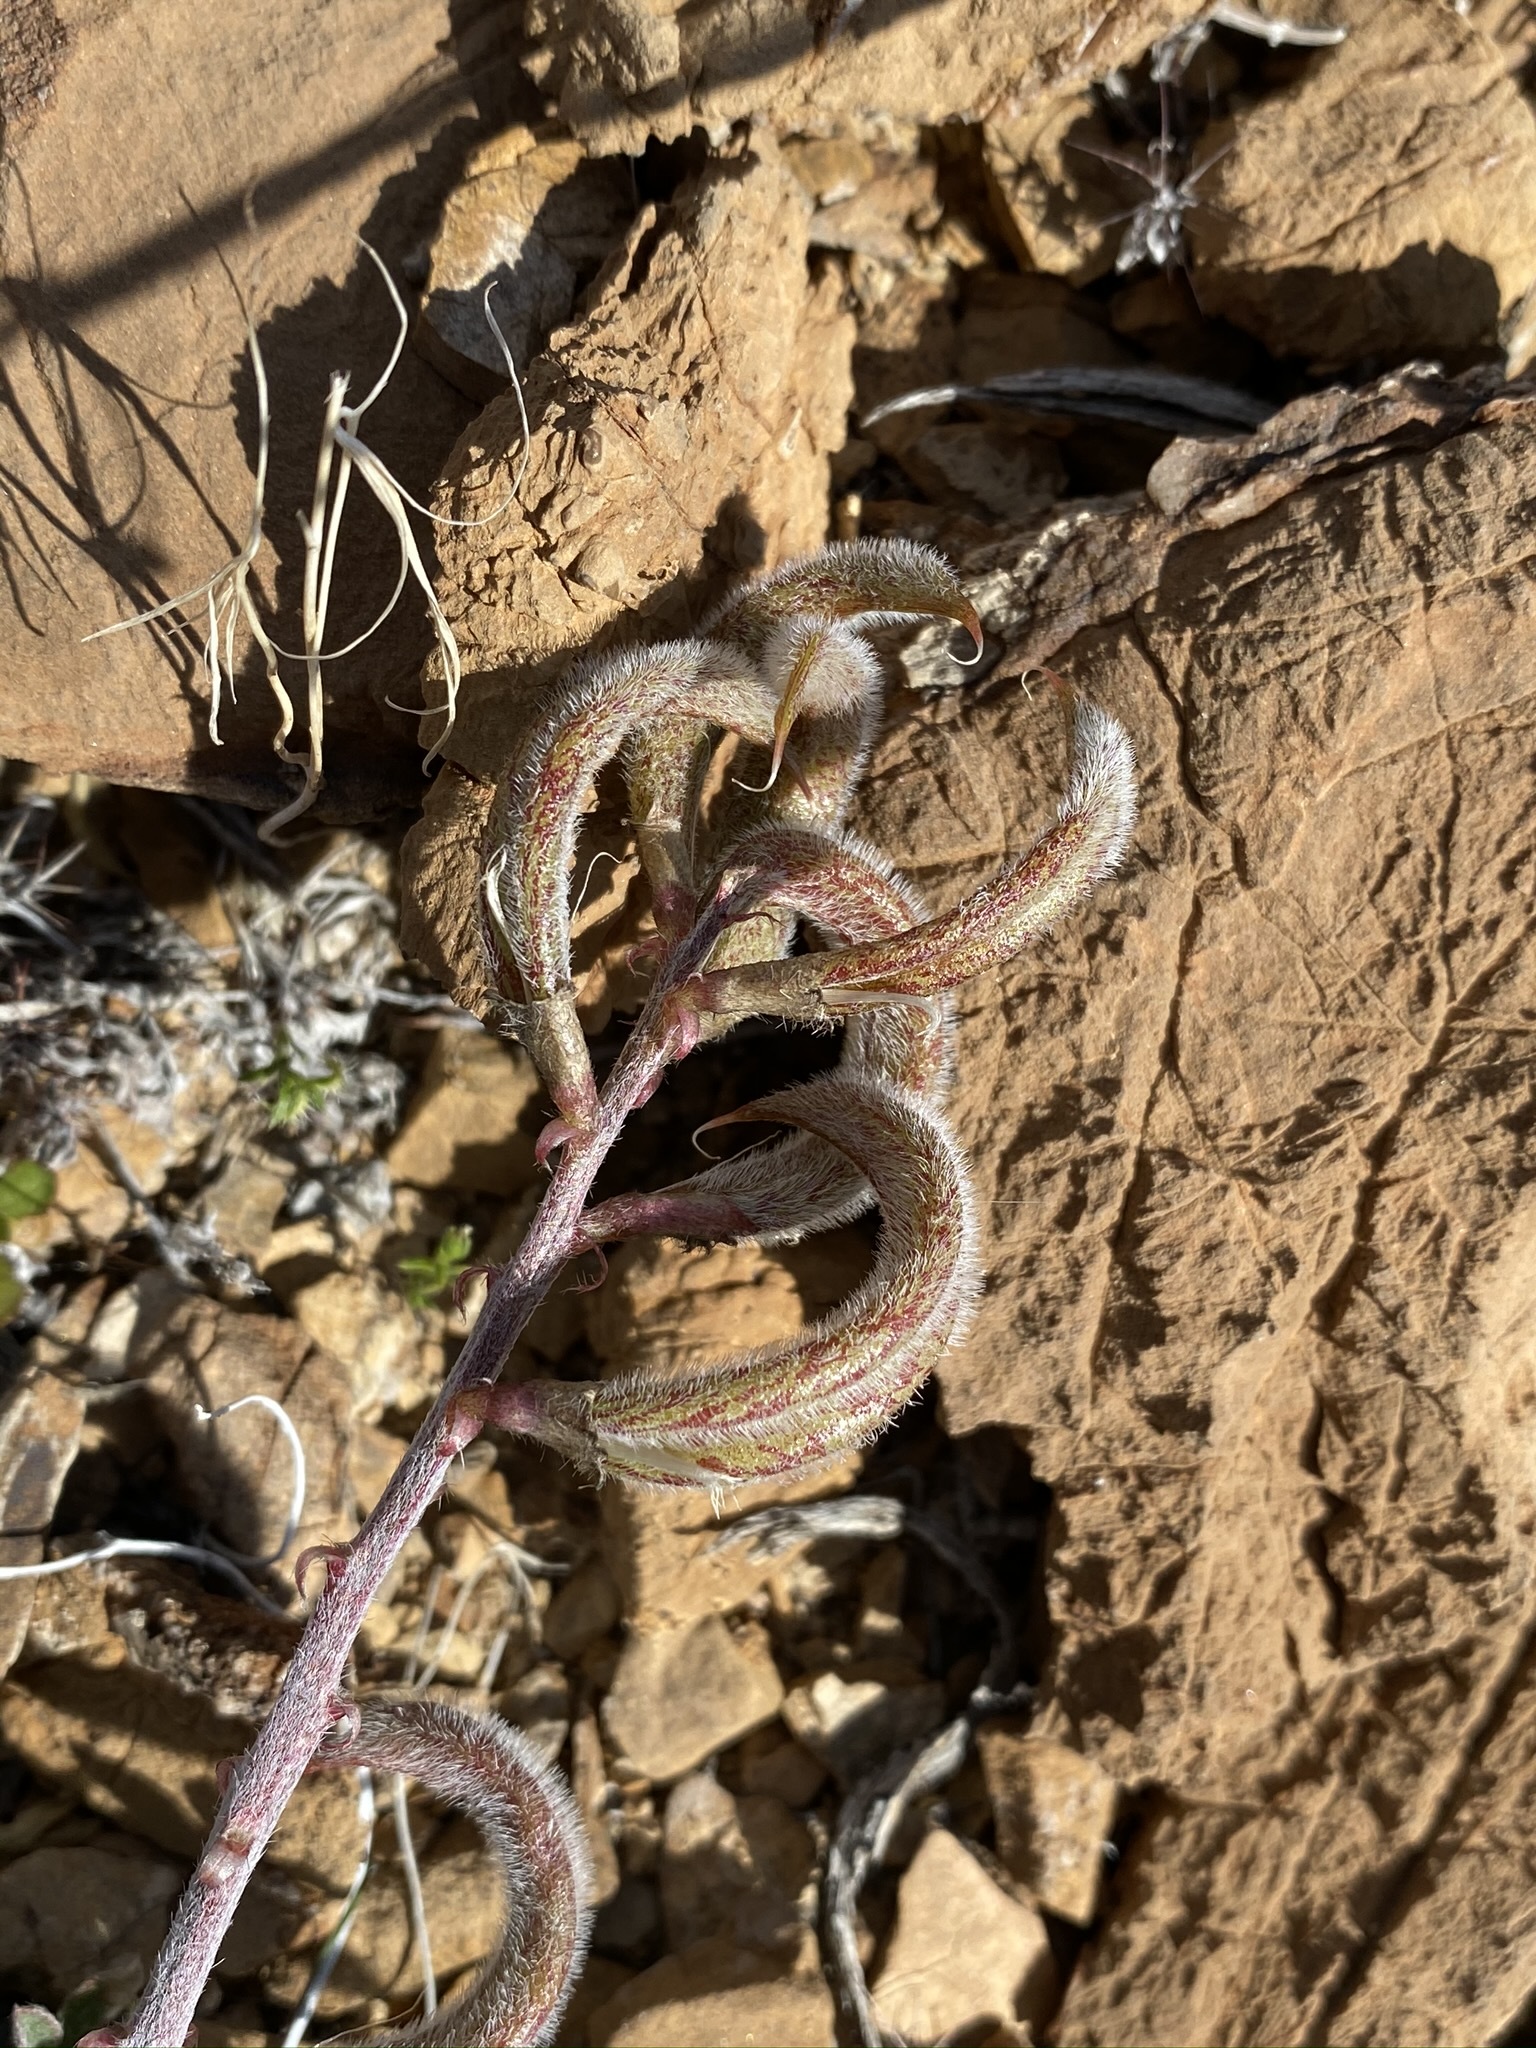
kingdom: Plantae
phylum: Tracheophyta
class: Magnoliopsida
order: Fabales
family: Fabaceae
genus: Astragalus
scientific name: Astragalus layneae
